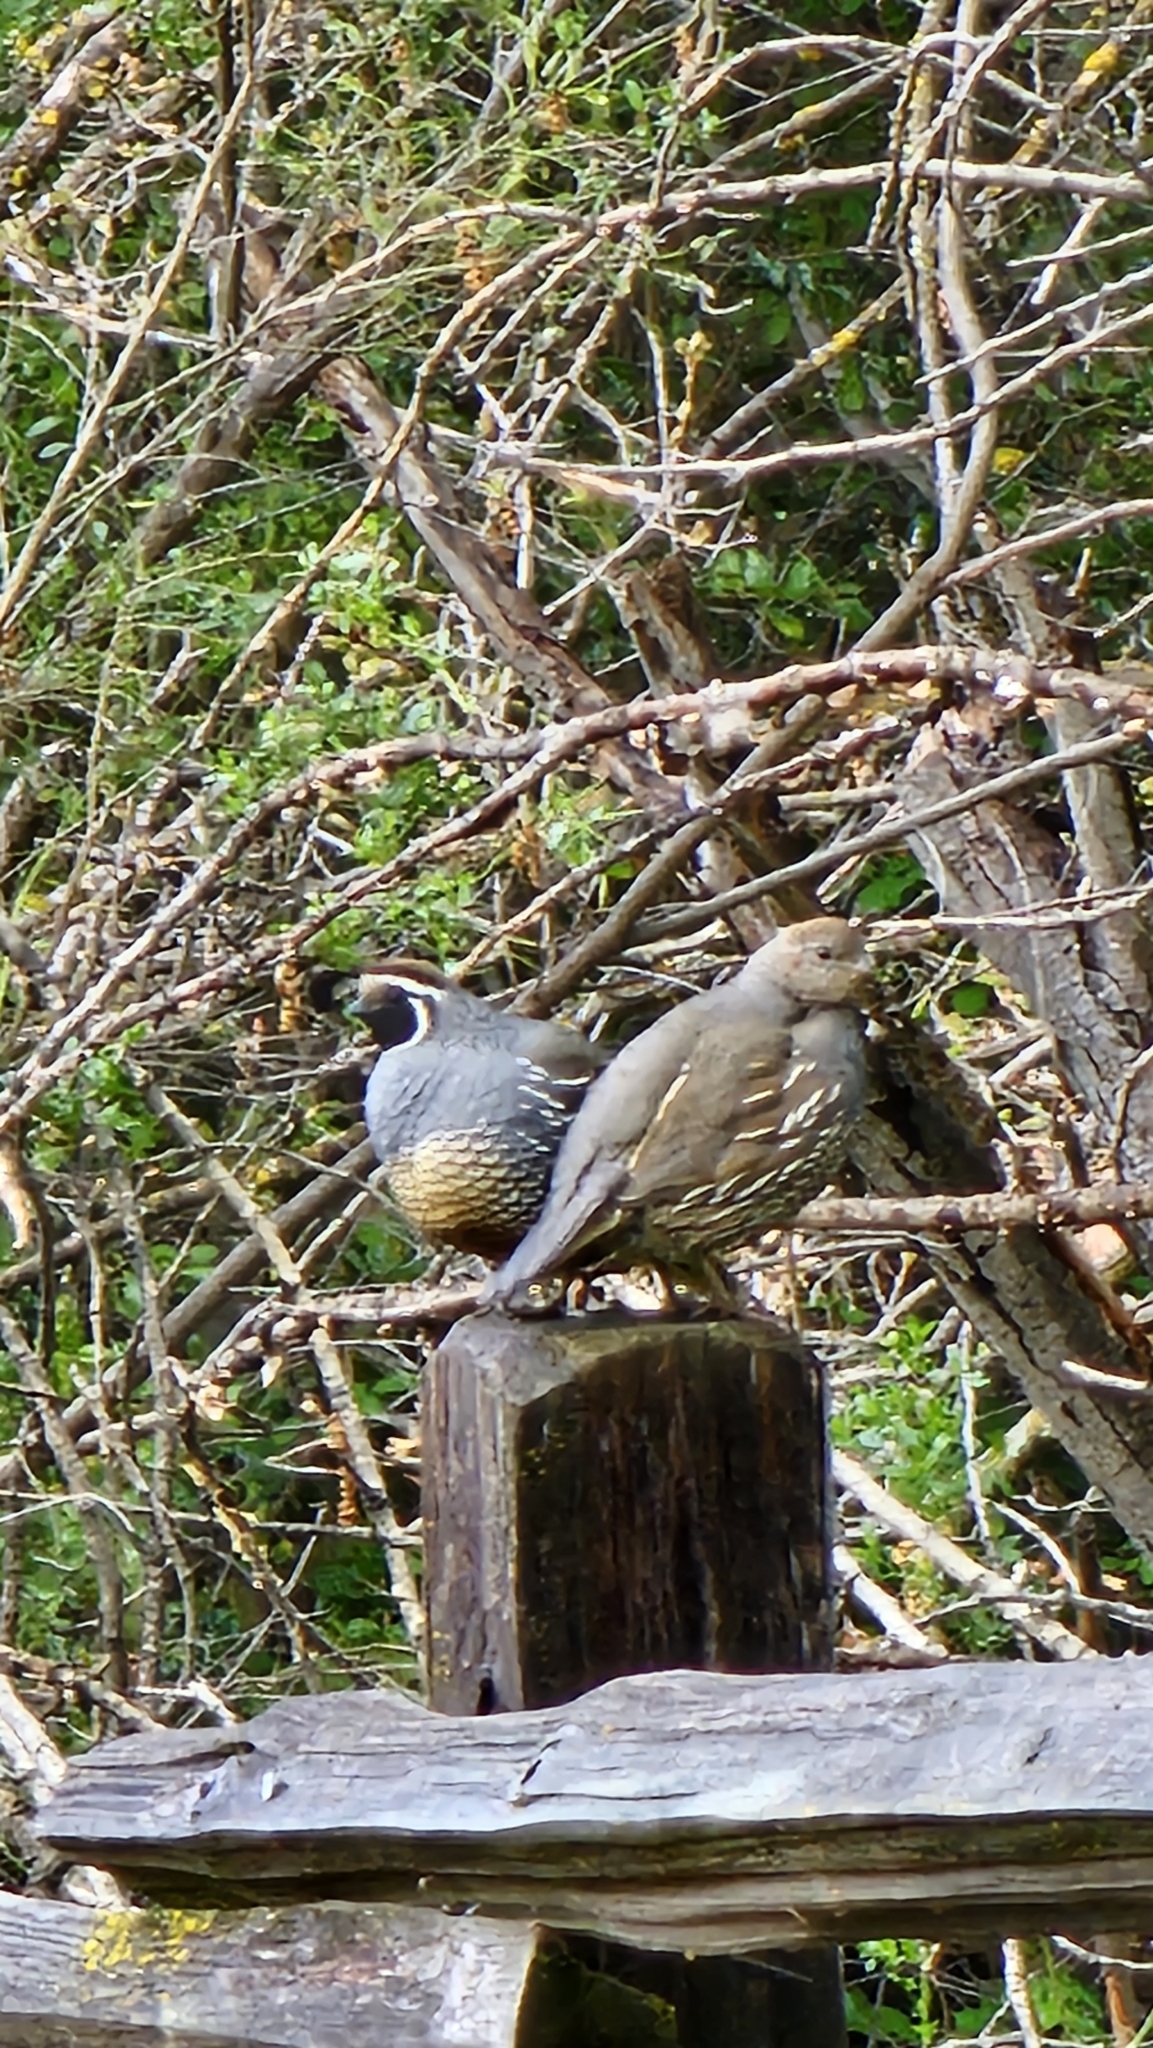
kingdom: Animalia
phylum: Chordata
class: Aves
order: Galliformes
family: Odontophoridae
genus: Callipepla
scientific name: Callipepla californica
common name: California quail
